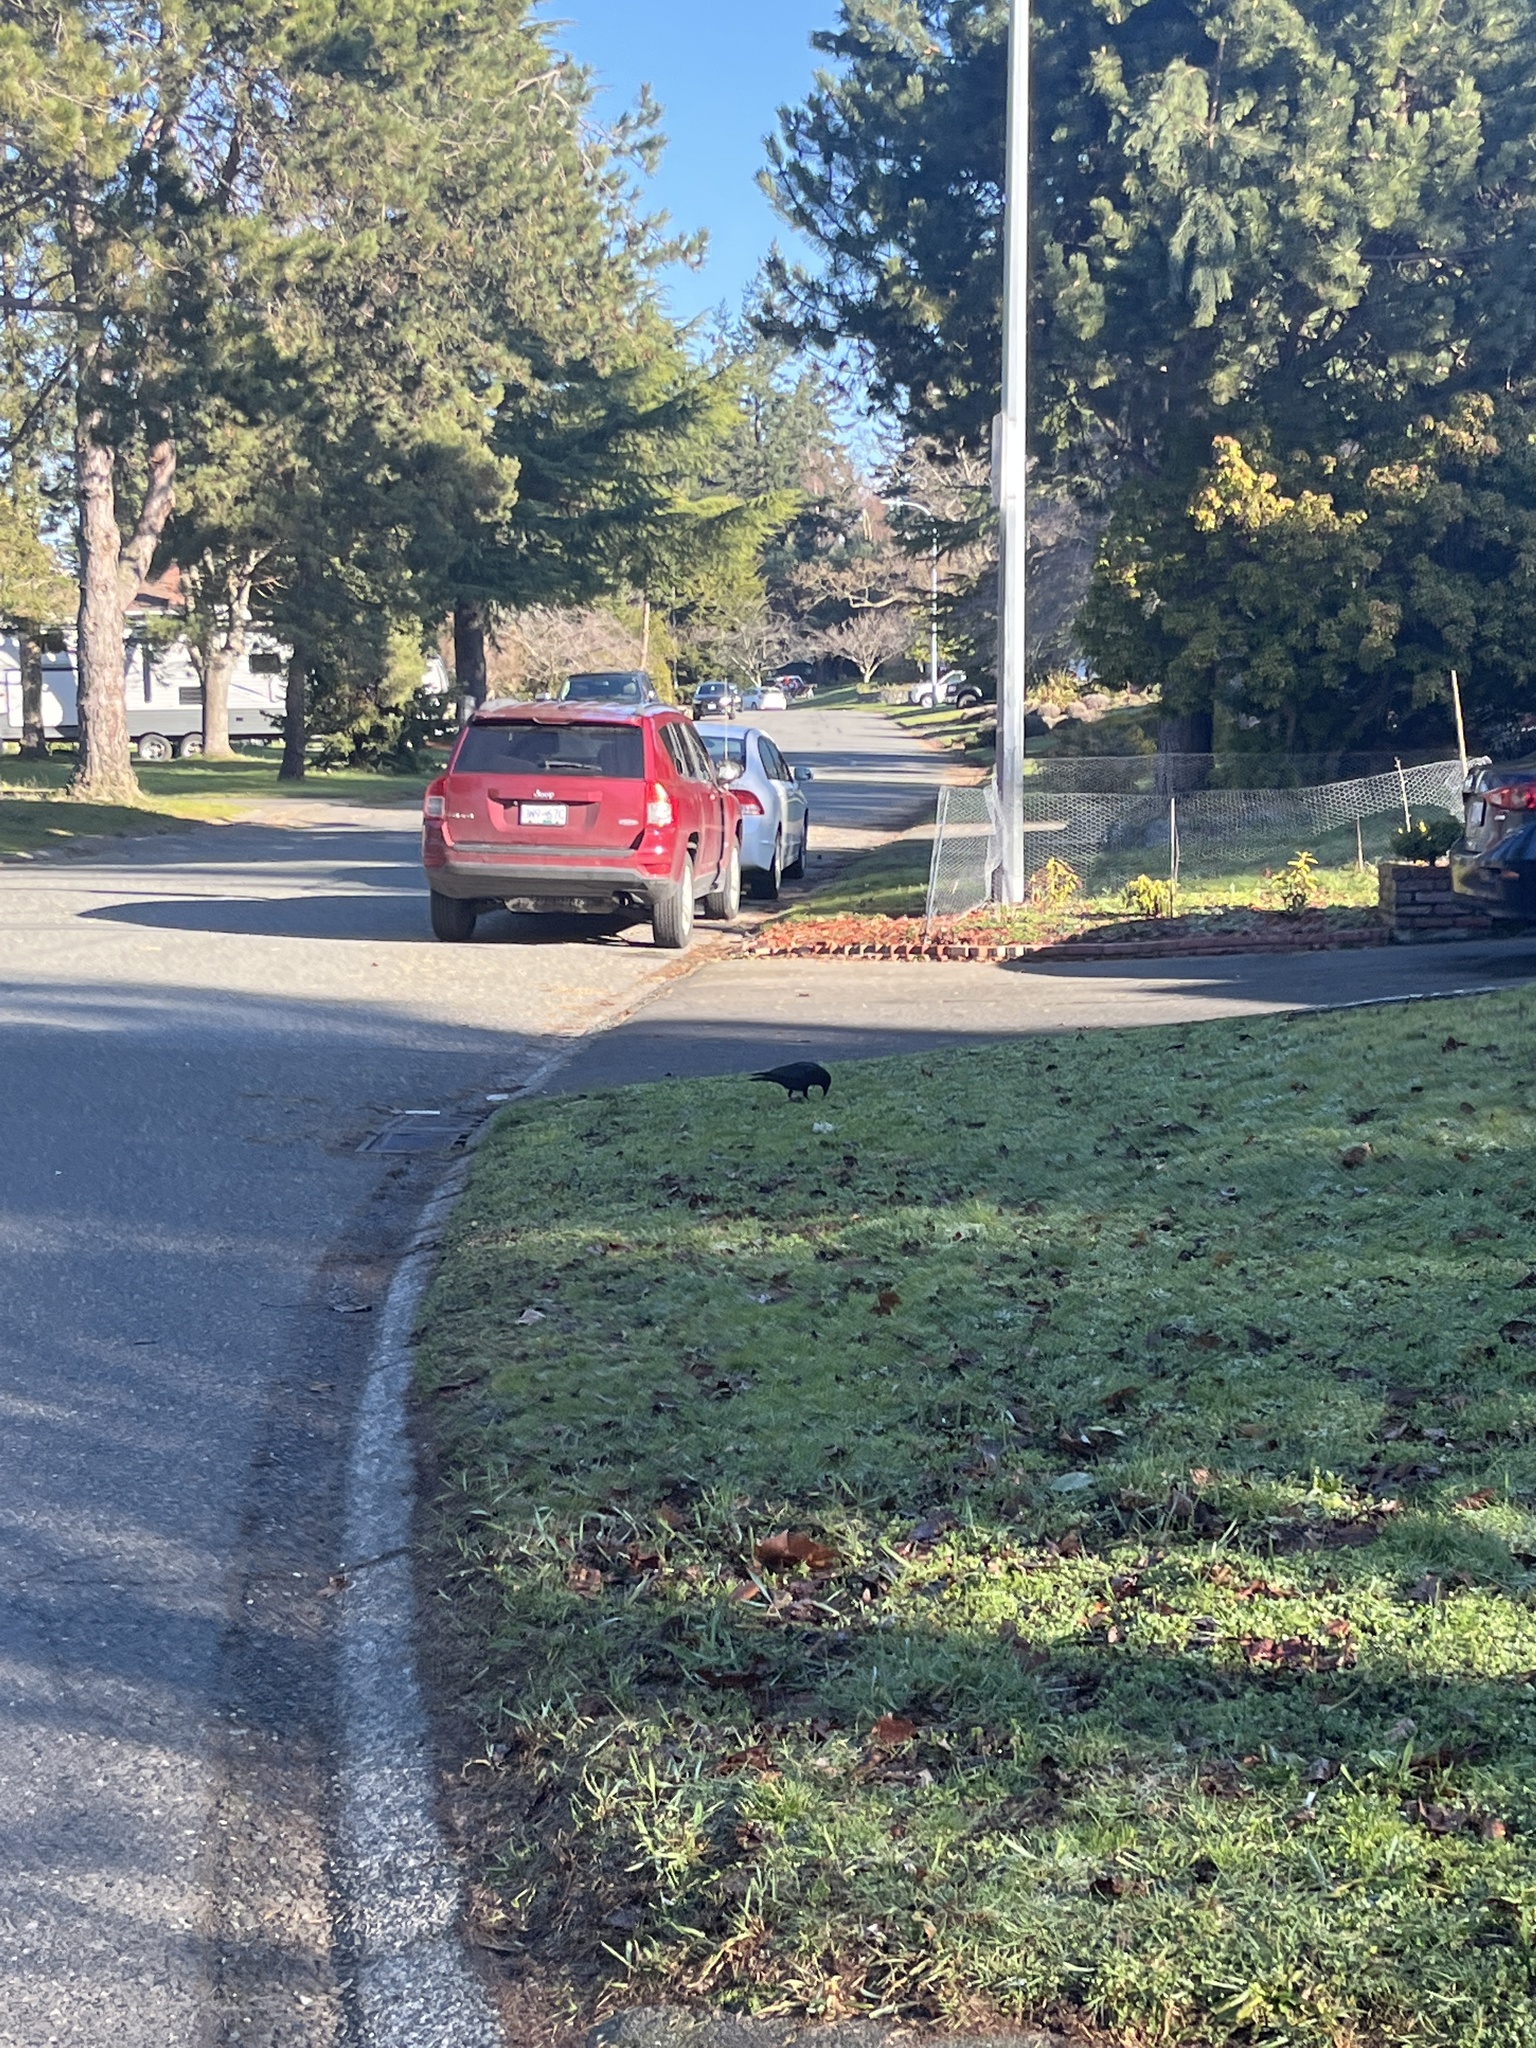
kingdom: Animalia
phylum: Chordata
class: Aves
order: Passeriformes
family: Corvidae
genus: Corvus
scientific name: Corvus brachyrhynchos
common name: American crow
